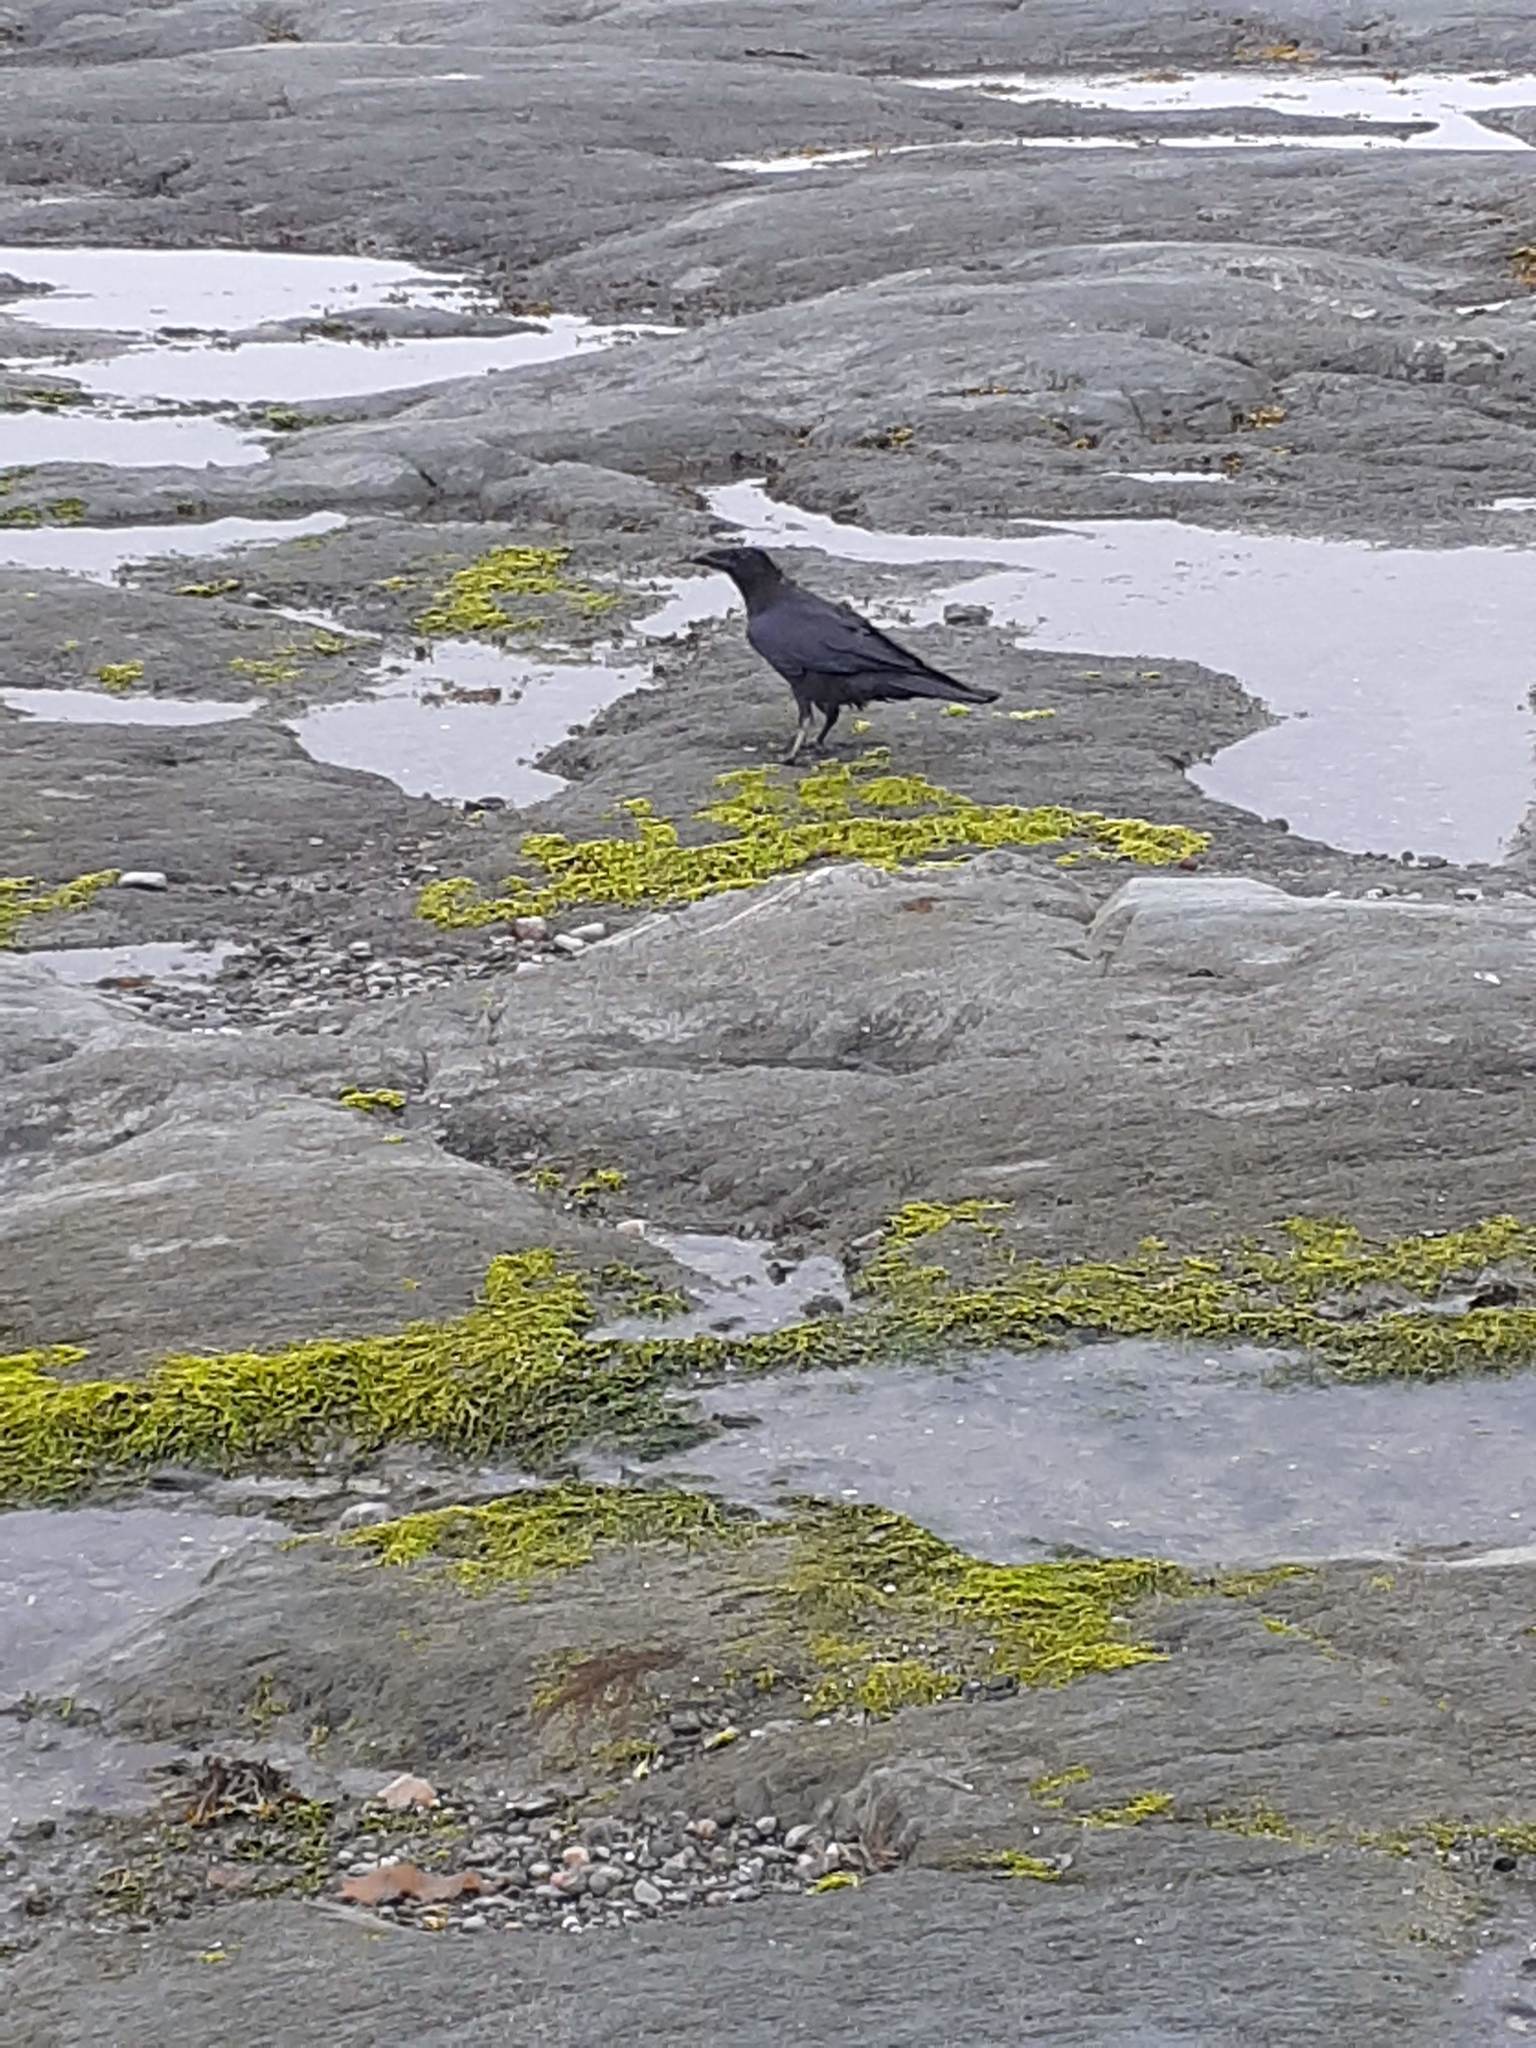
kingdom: Animalia
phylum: Chordata
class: Aves
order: Passeriformes
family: Corvidae
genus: Corvus
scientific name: Corvus corax
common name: Common raven
